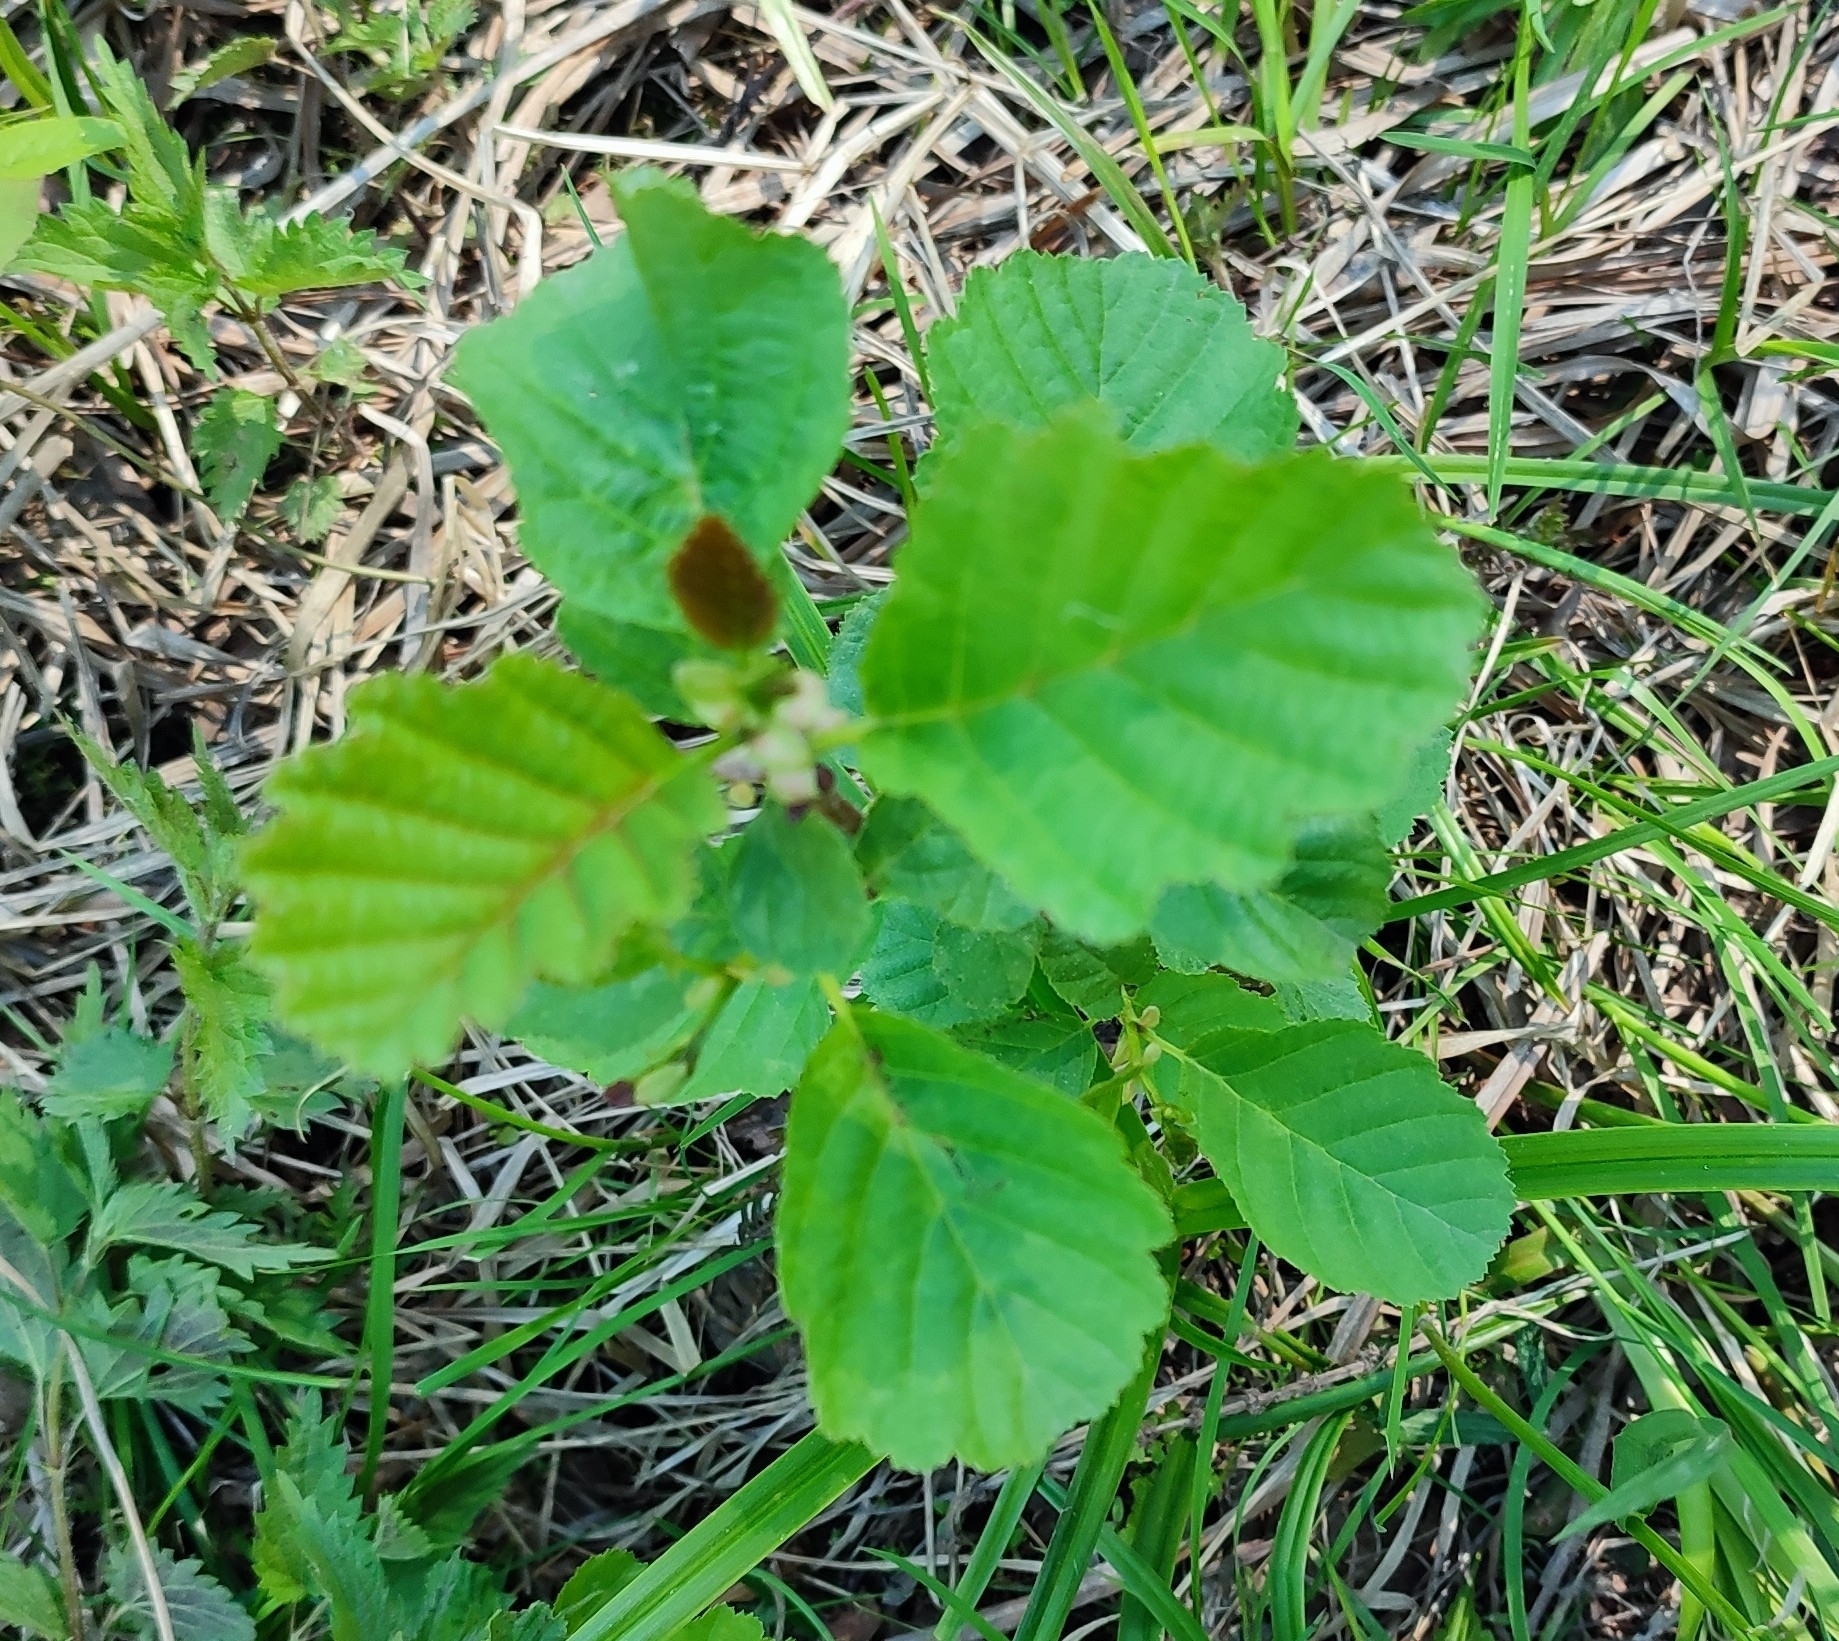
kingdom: Plantae
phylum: Tracheophyta
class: Magnoliopsida
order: Fagales
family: Betulaceae
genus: Alnus
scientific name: Alnus glutinosa
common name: Black alder
